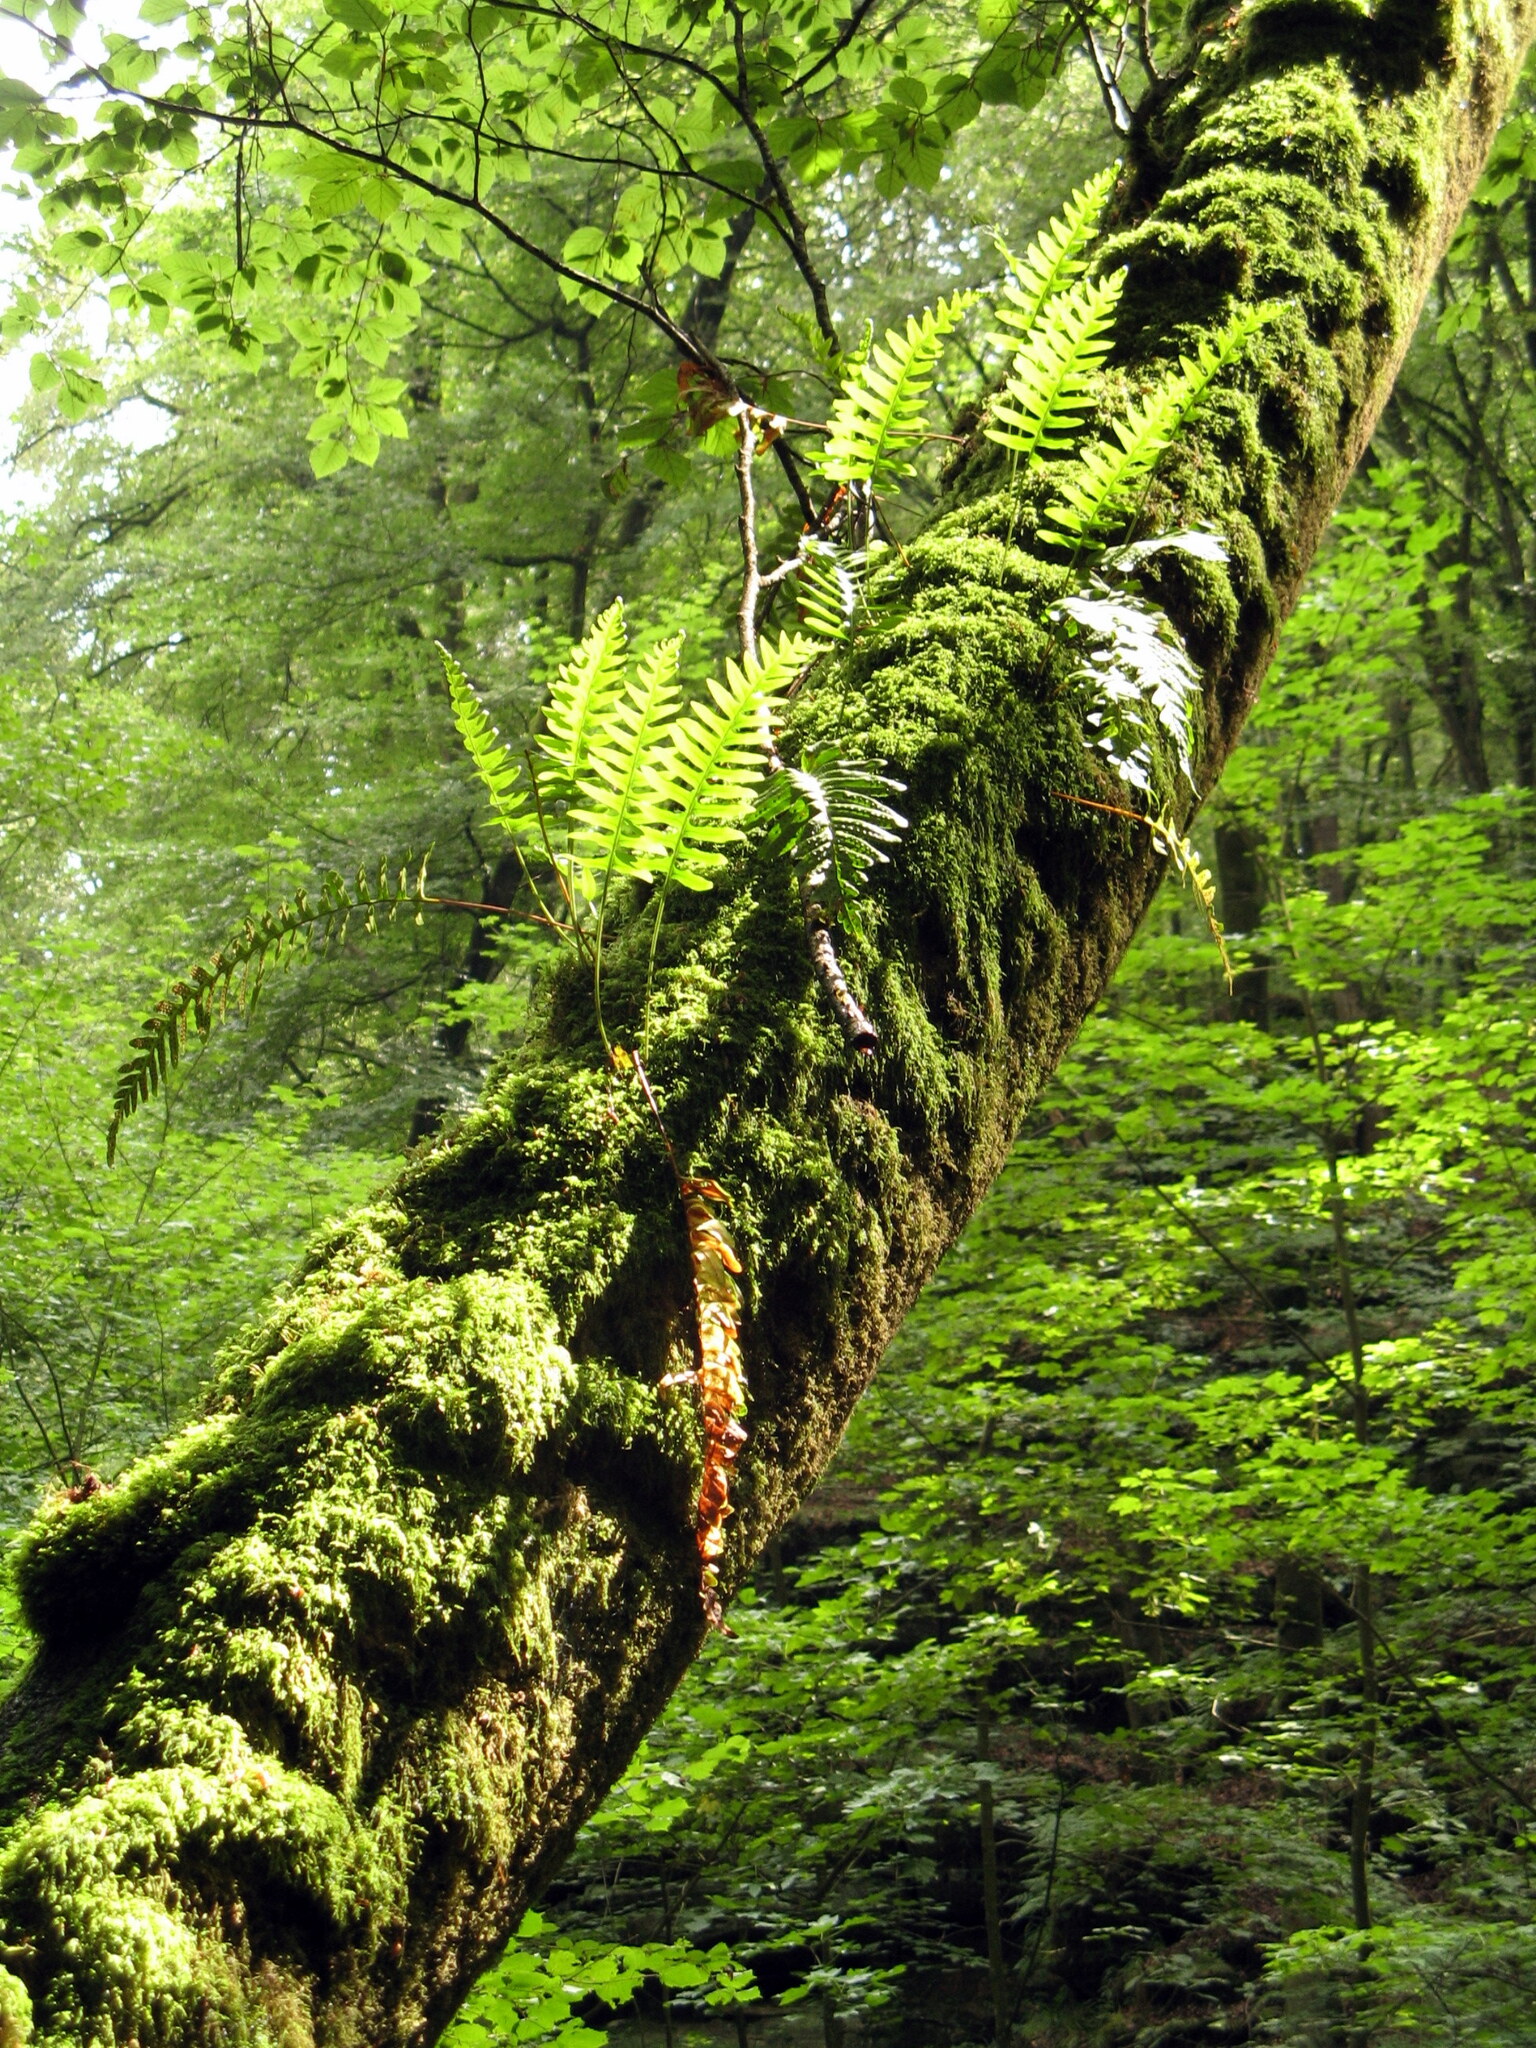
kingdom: Plantae
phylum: Tracheophyta
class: Polypodiopsida
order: Polypodiales
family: Polypodiaceae
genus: Polypodium
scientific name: Polypodium vulgare
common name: Common polypody
